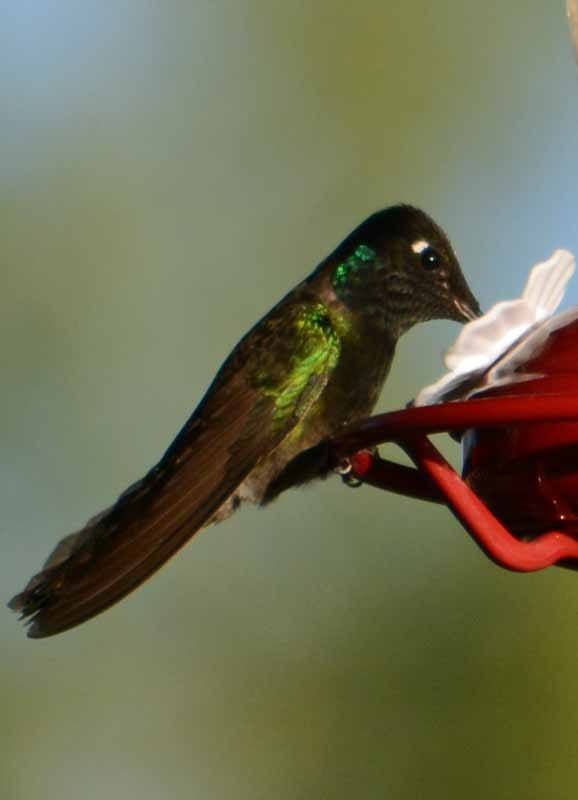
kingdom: Animalia
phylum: Chordata
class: Aves
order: Apodiformes
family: Trochilidae
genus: Eugenes
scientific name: Eugenes fulgens
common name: Magnificent hummingbird
